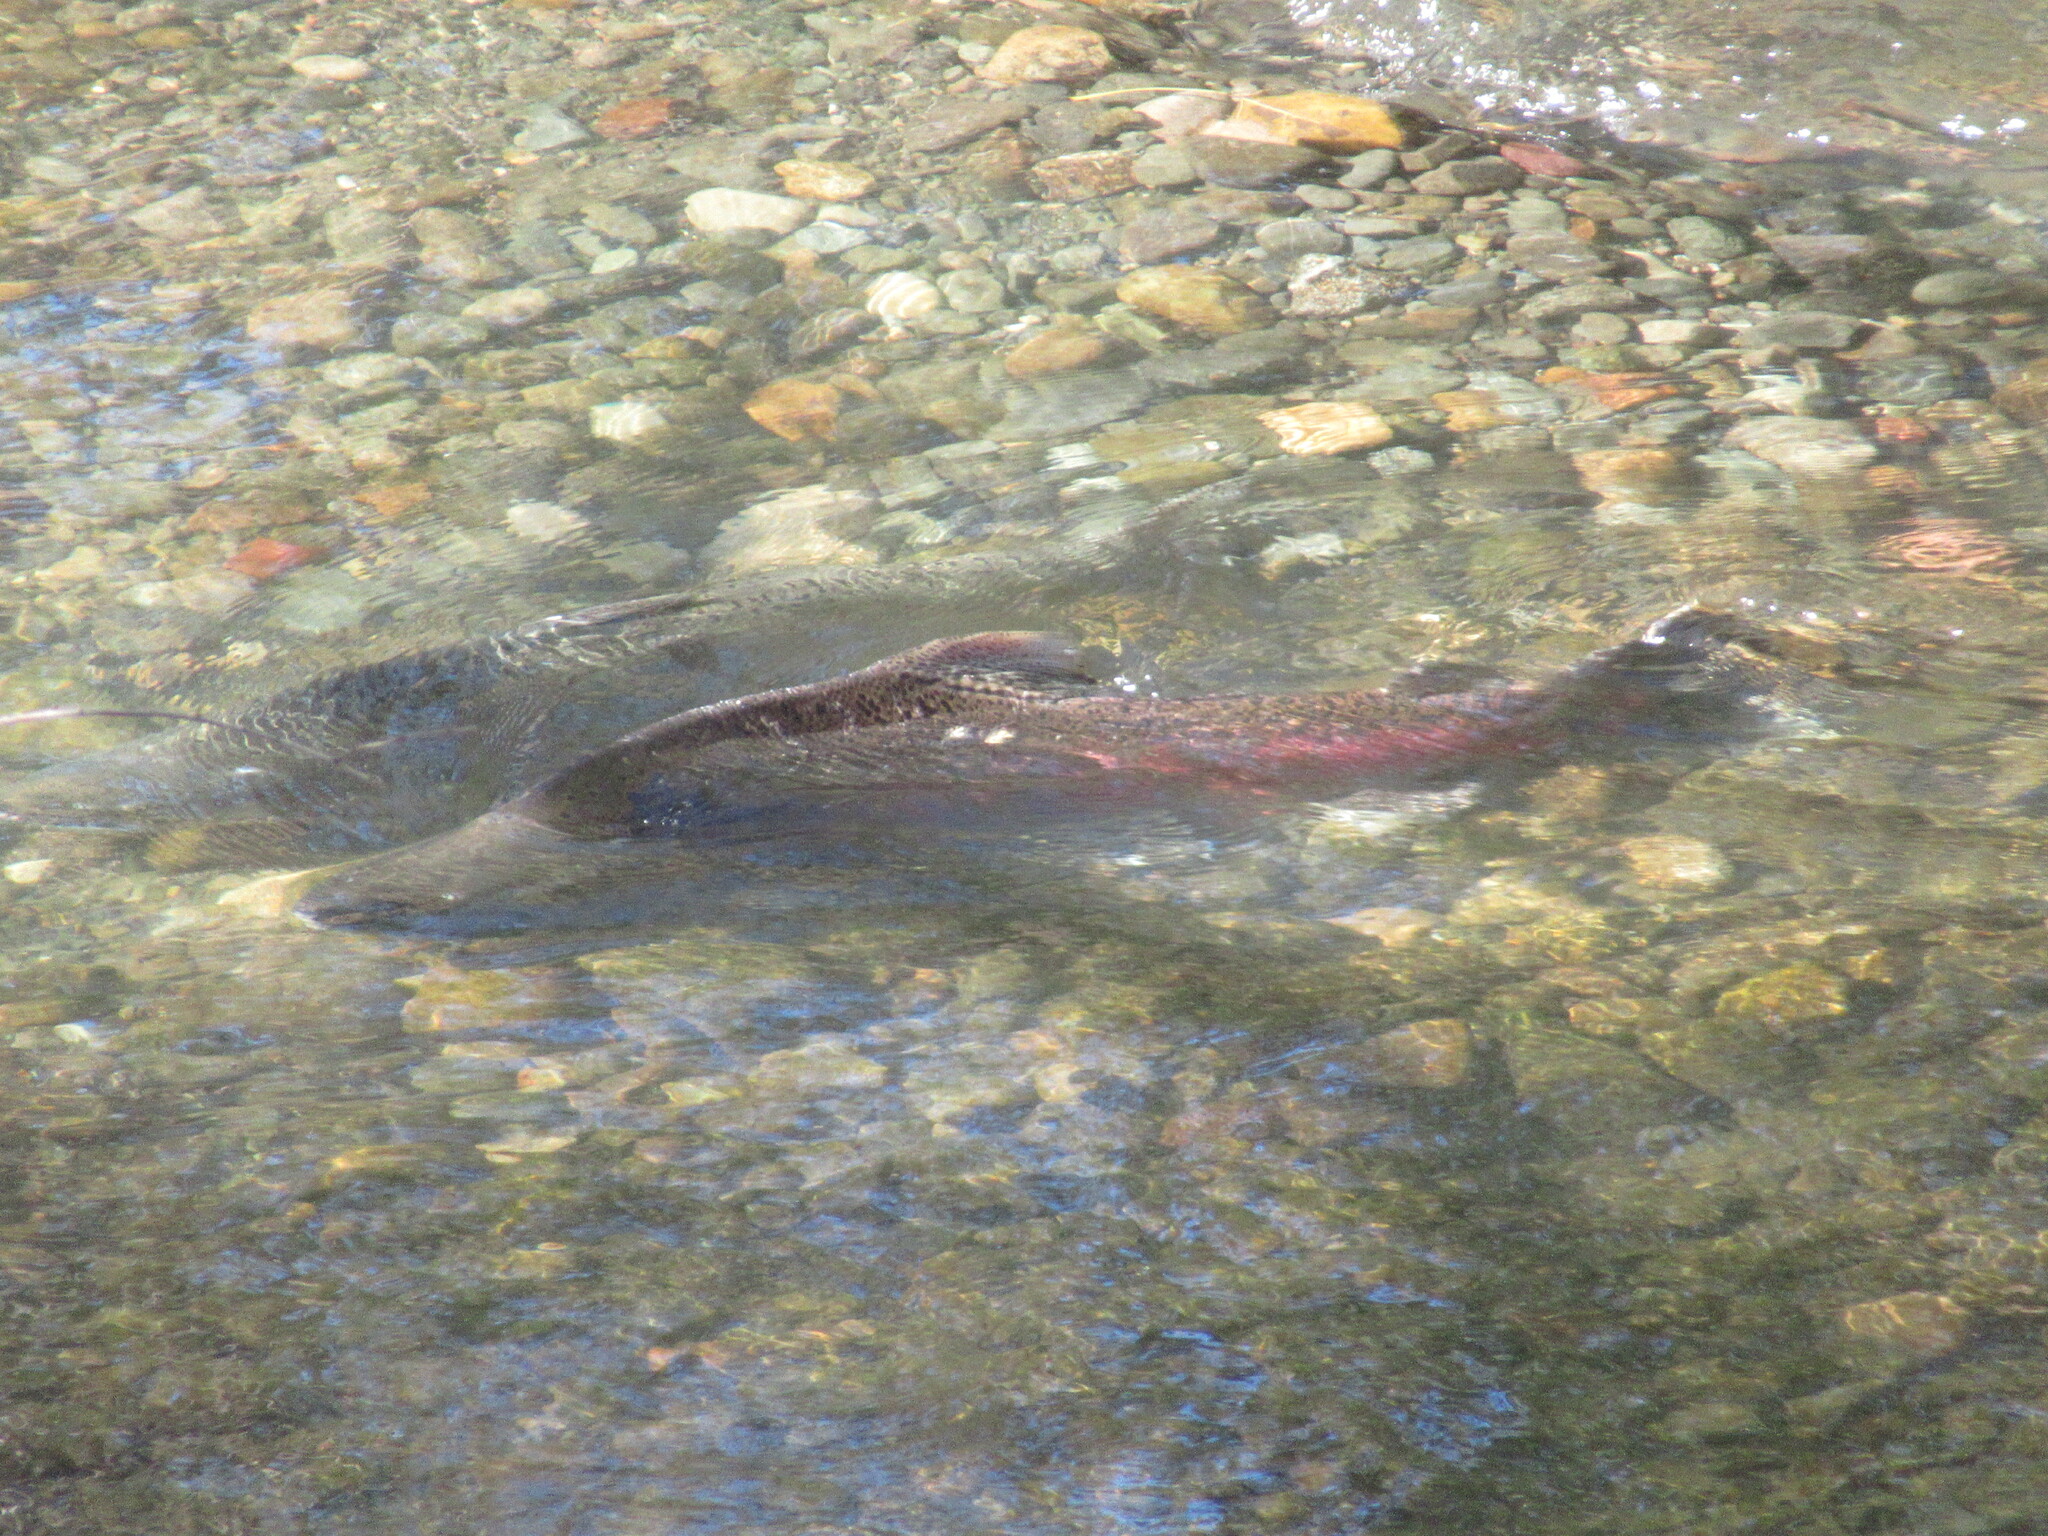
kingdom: Animalia
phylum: Chordata
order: Salmoniformes
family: Salmonidae
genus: Oncorhynchus
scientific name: Oncorhynchus tshawytscha
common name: Chinook salmon
